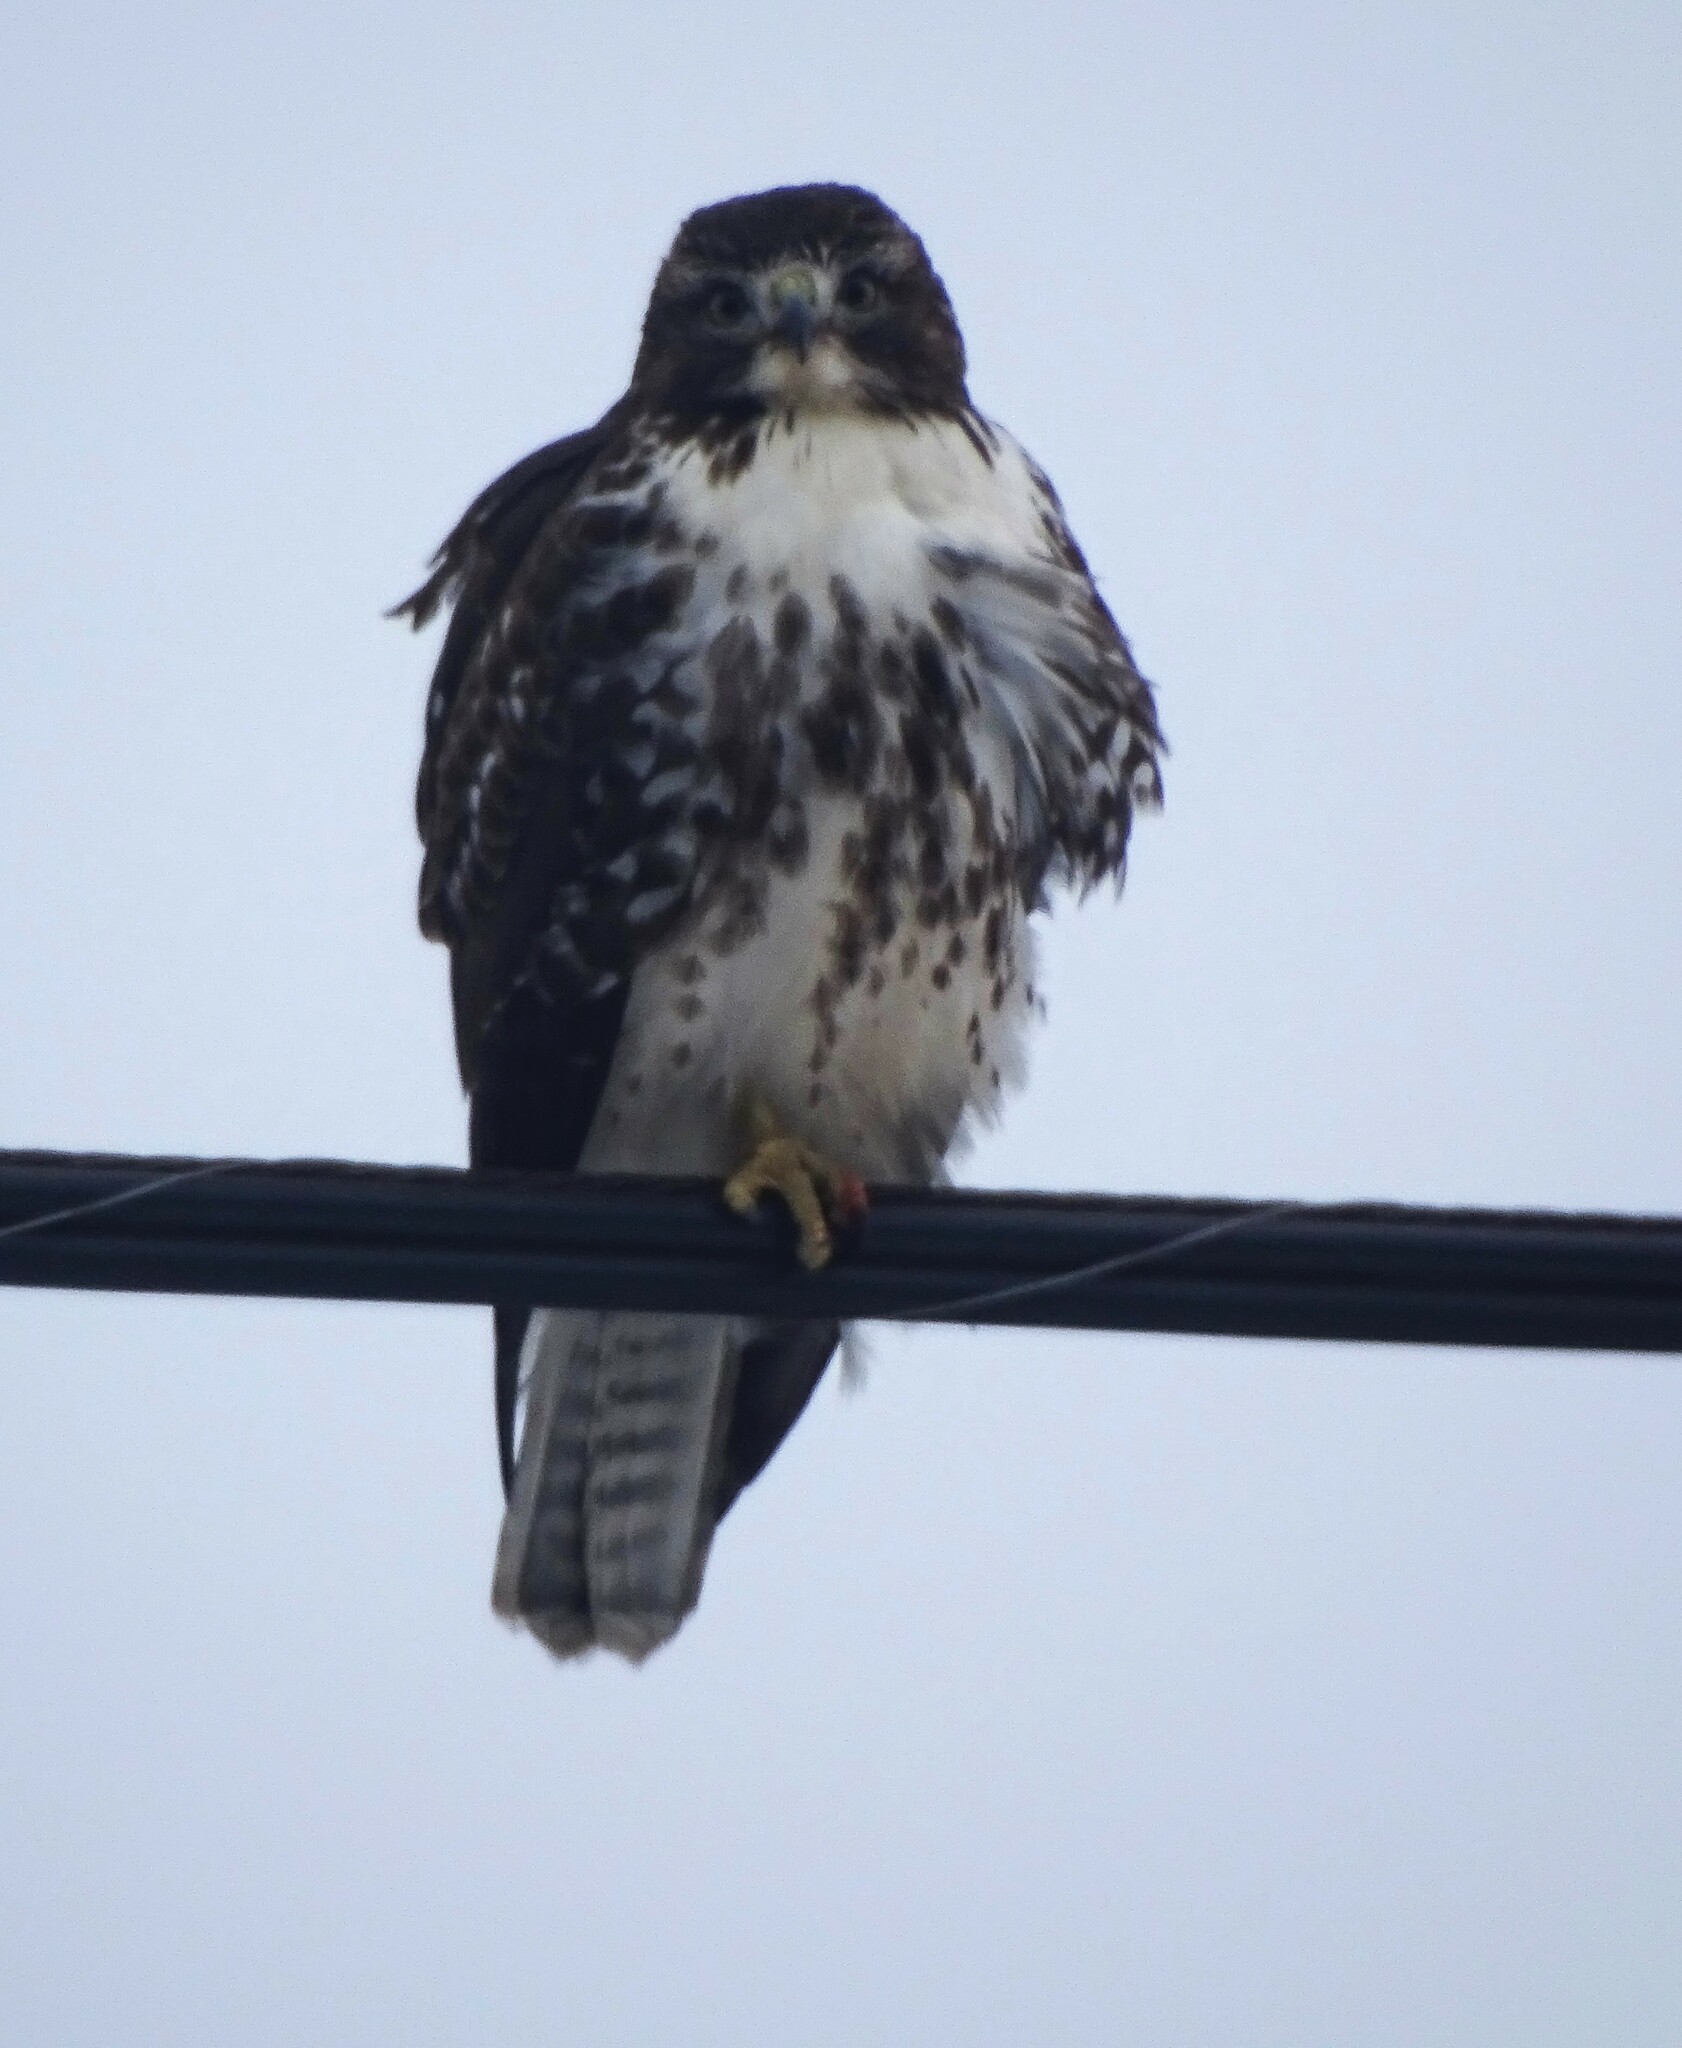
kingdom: Animalia
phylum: Chordata
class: Aves
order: Accipitriformes
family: Accipitridae
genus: Buteo
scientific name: Buteo jamaicensis
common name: Red-tailed hawk
